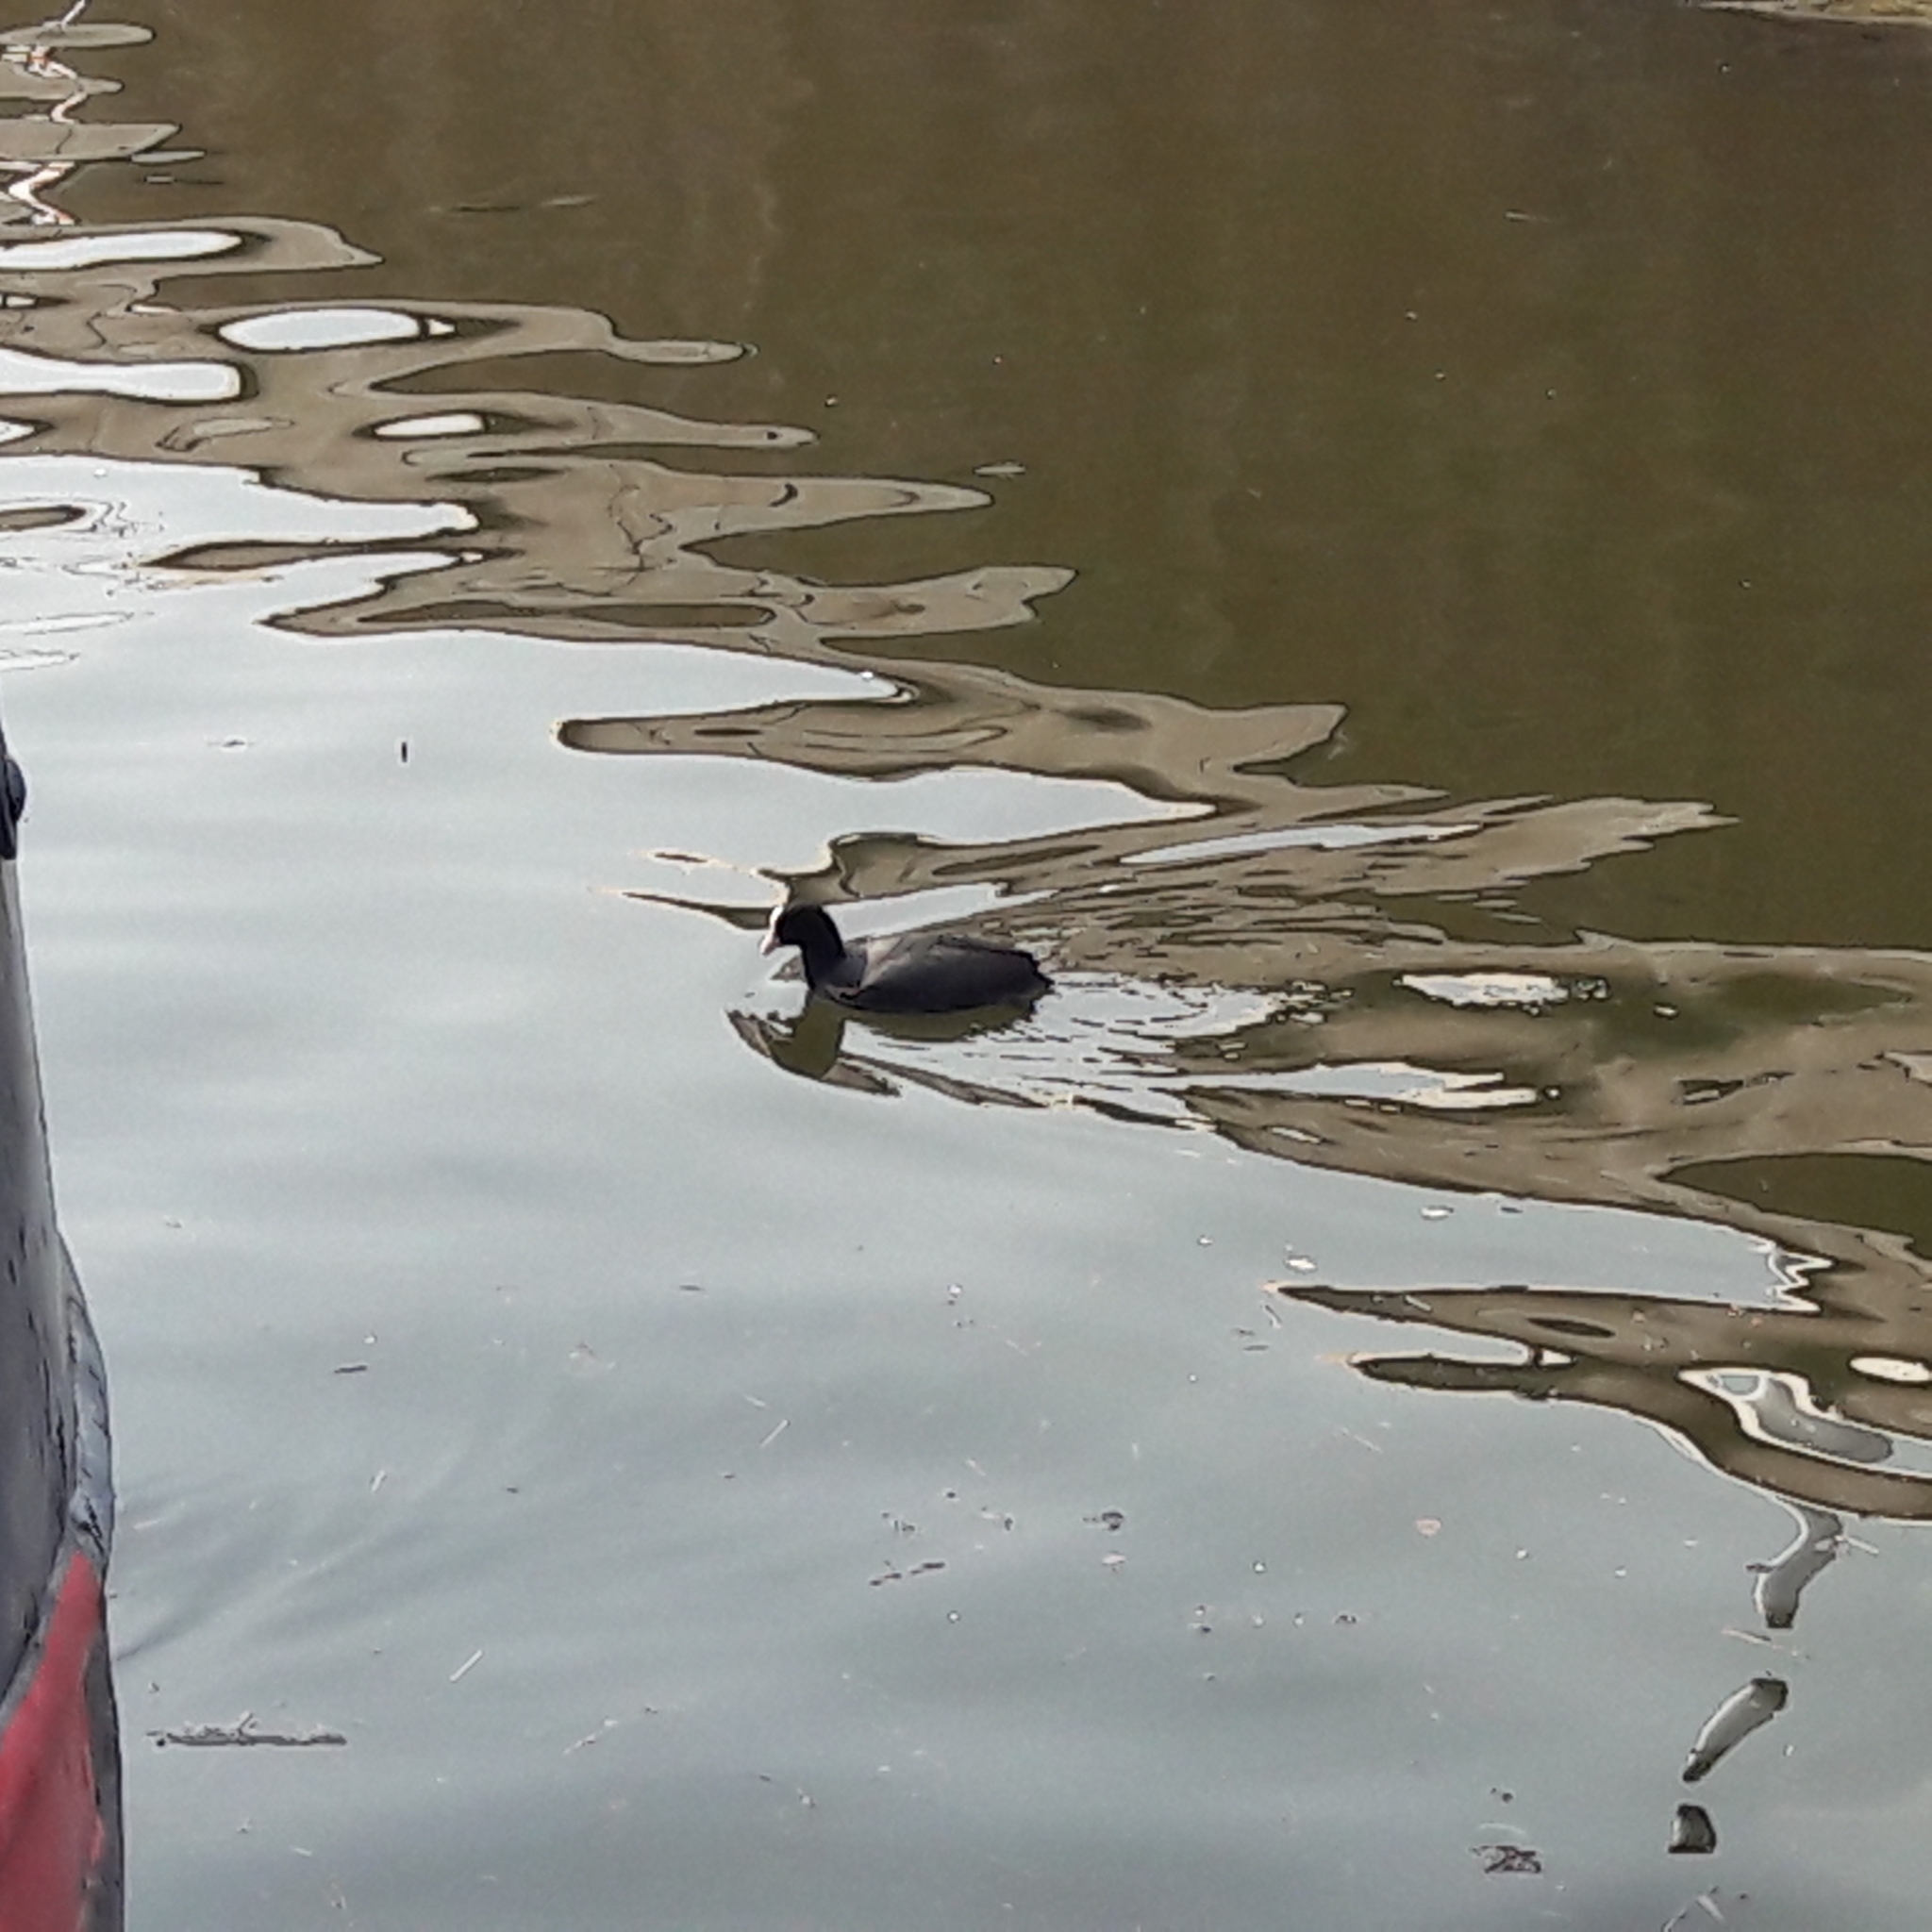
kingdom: Animalia
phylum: Chordata
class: Aves
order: Gruiformes
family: Rallidae
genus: Fulica
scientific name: Fulica atra
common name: Eurasian coot
